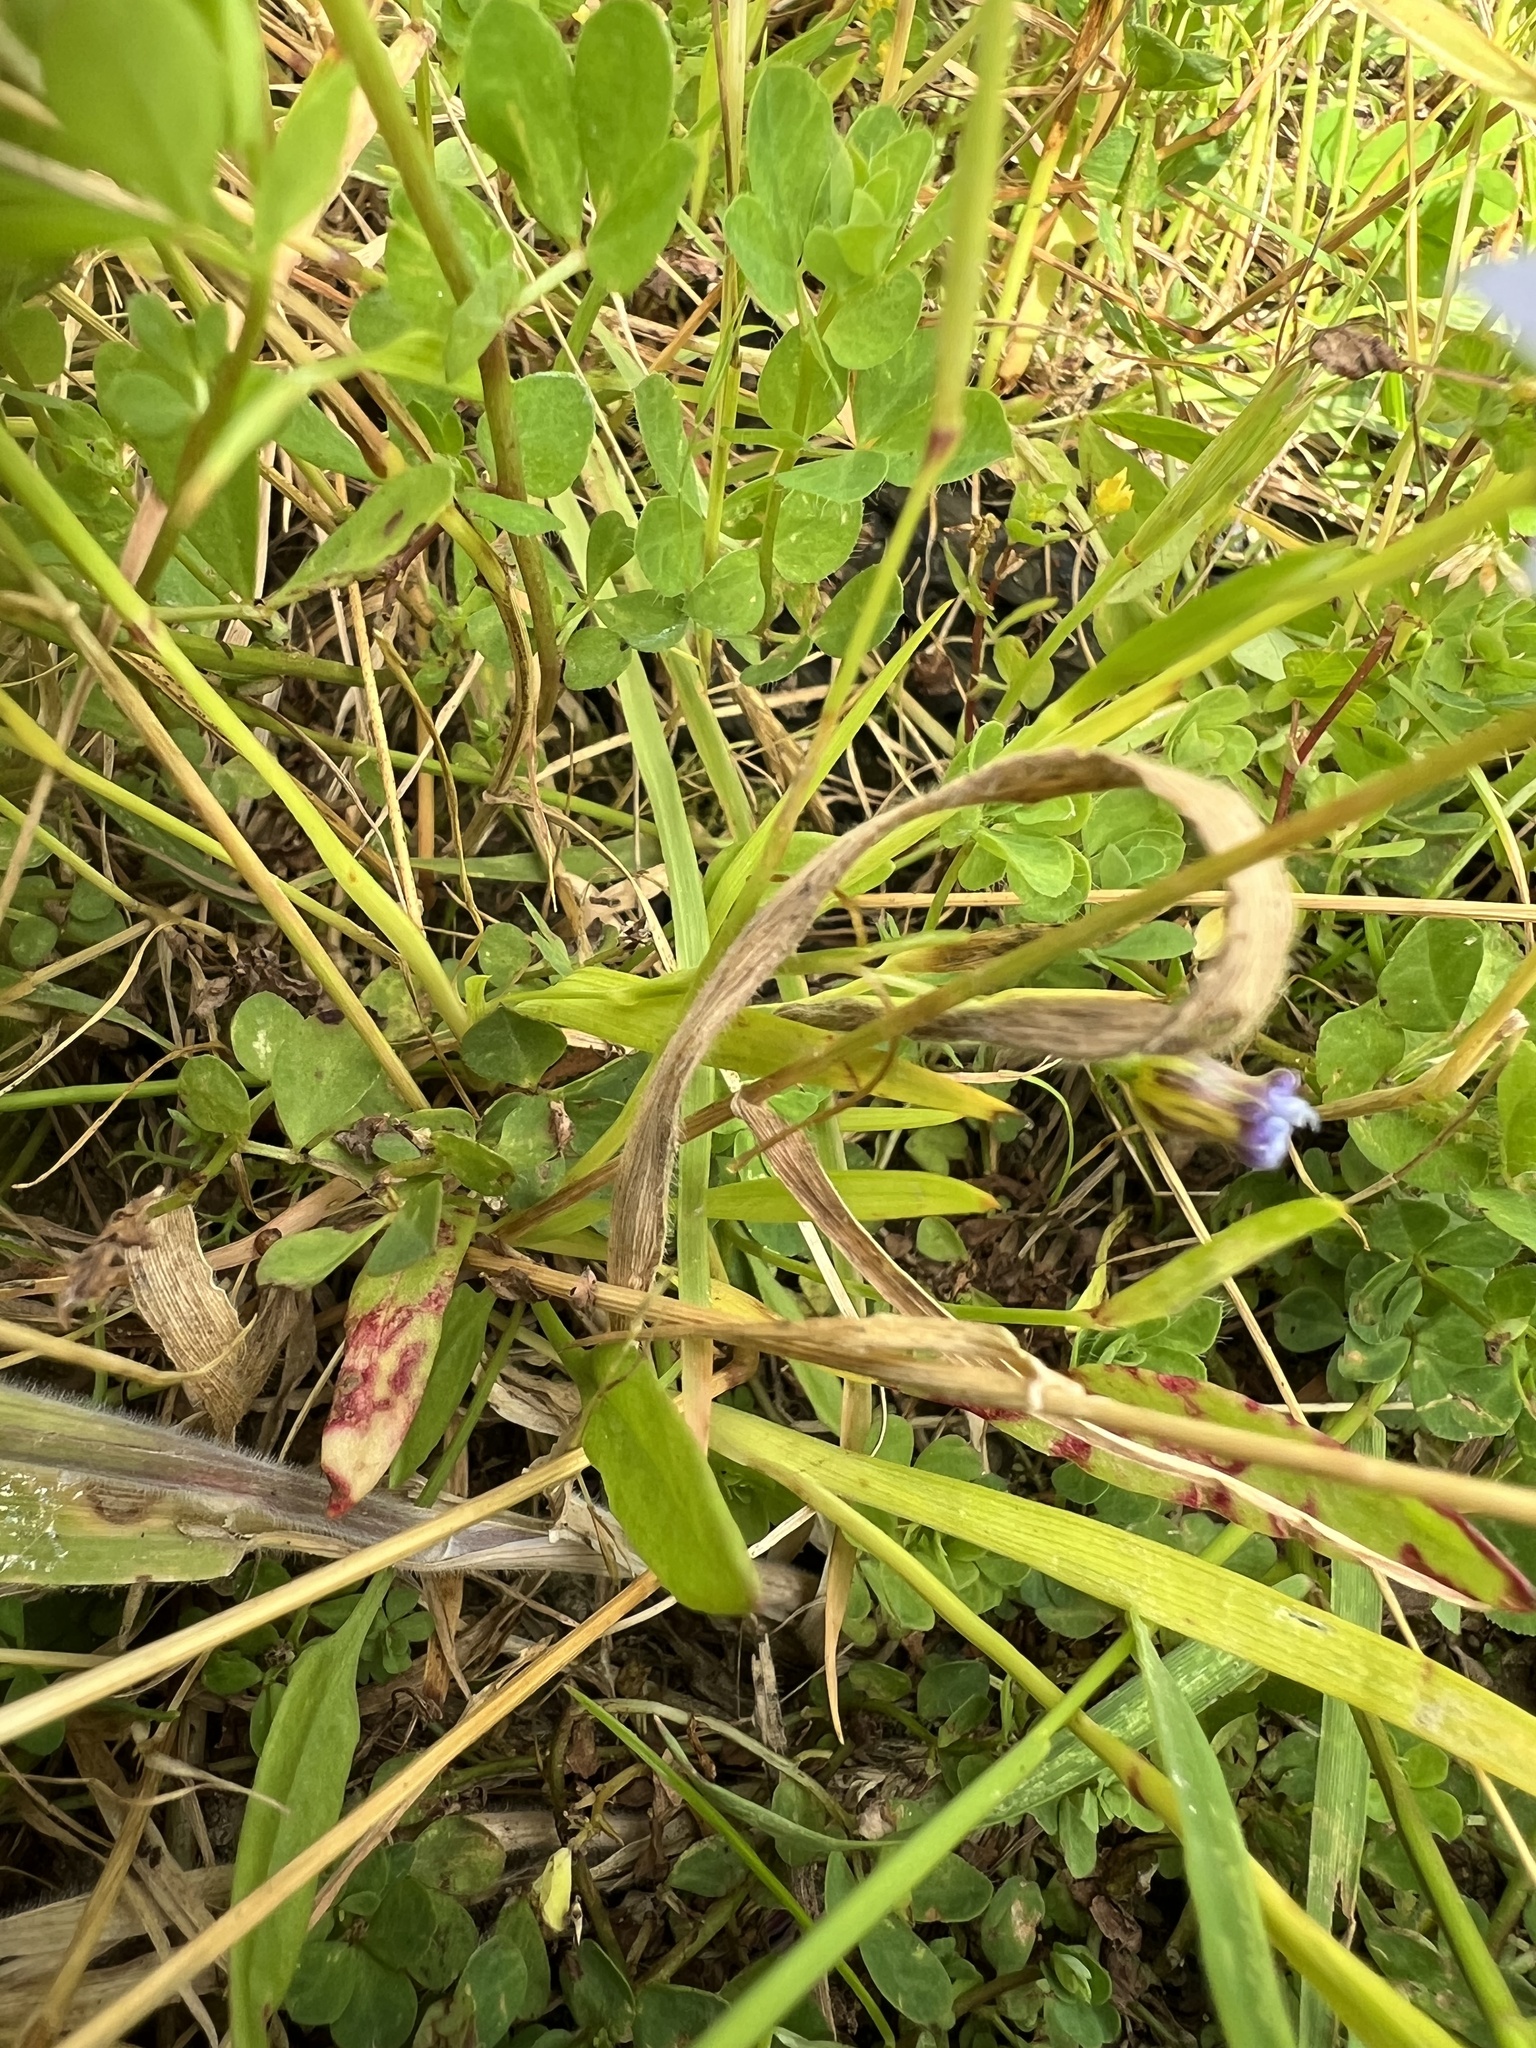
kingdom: Plantae
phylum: Tracheophyta
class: Liliopsida
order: Asparagales
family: Iridaceae
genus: Sisyrinchium
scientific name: Sisyrinchium micranthum
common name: Bermuda pigroot
